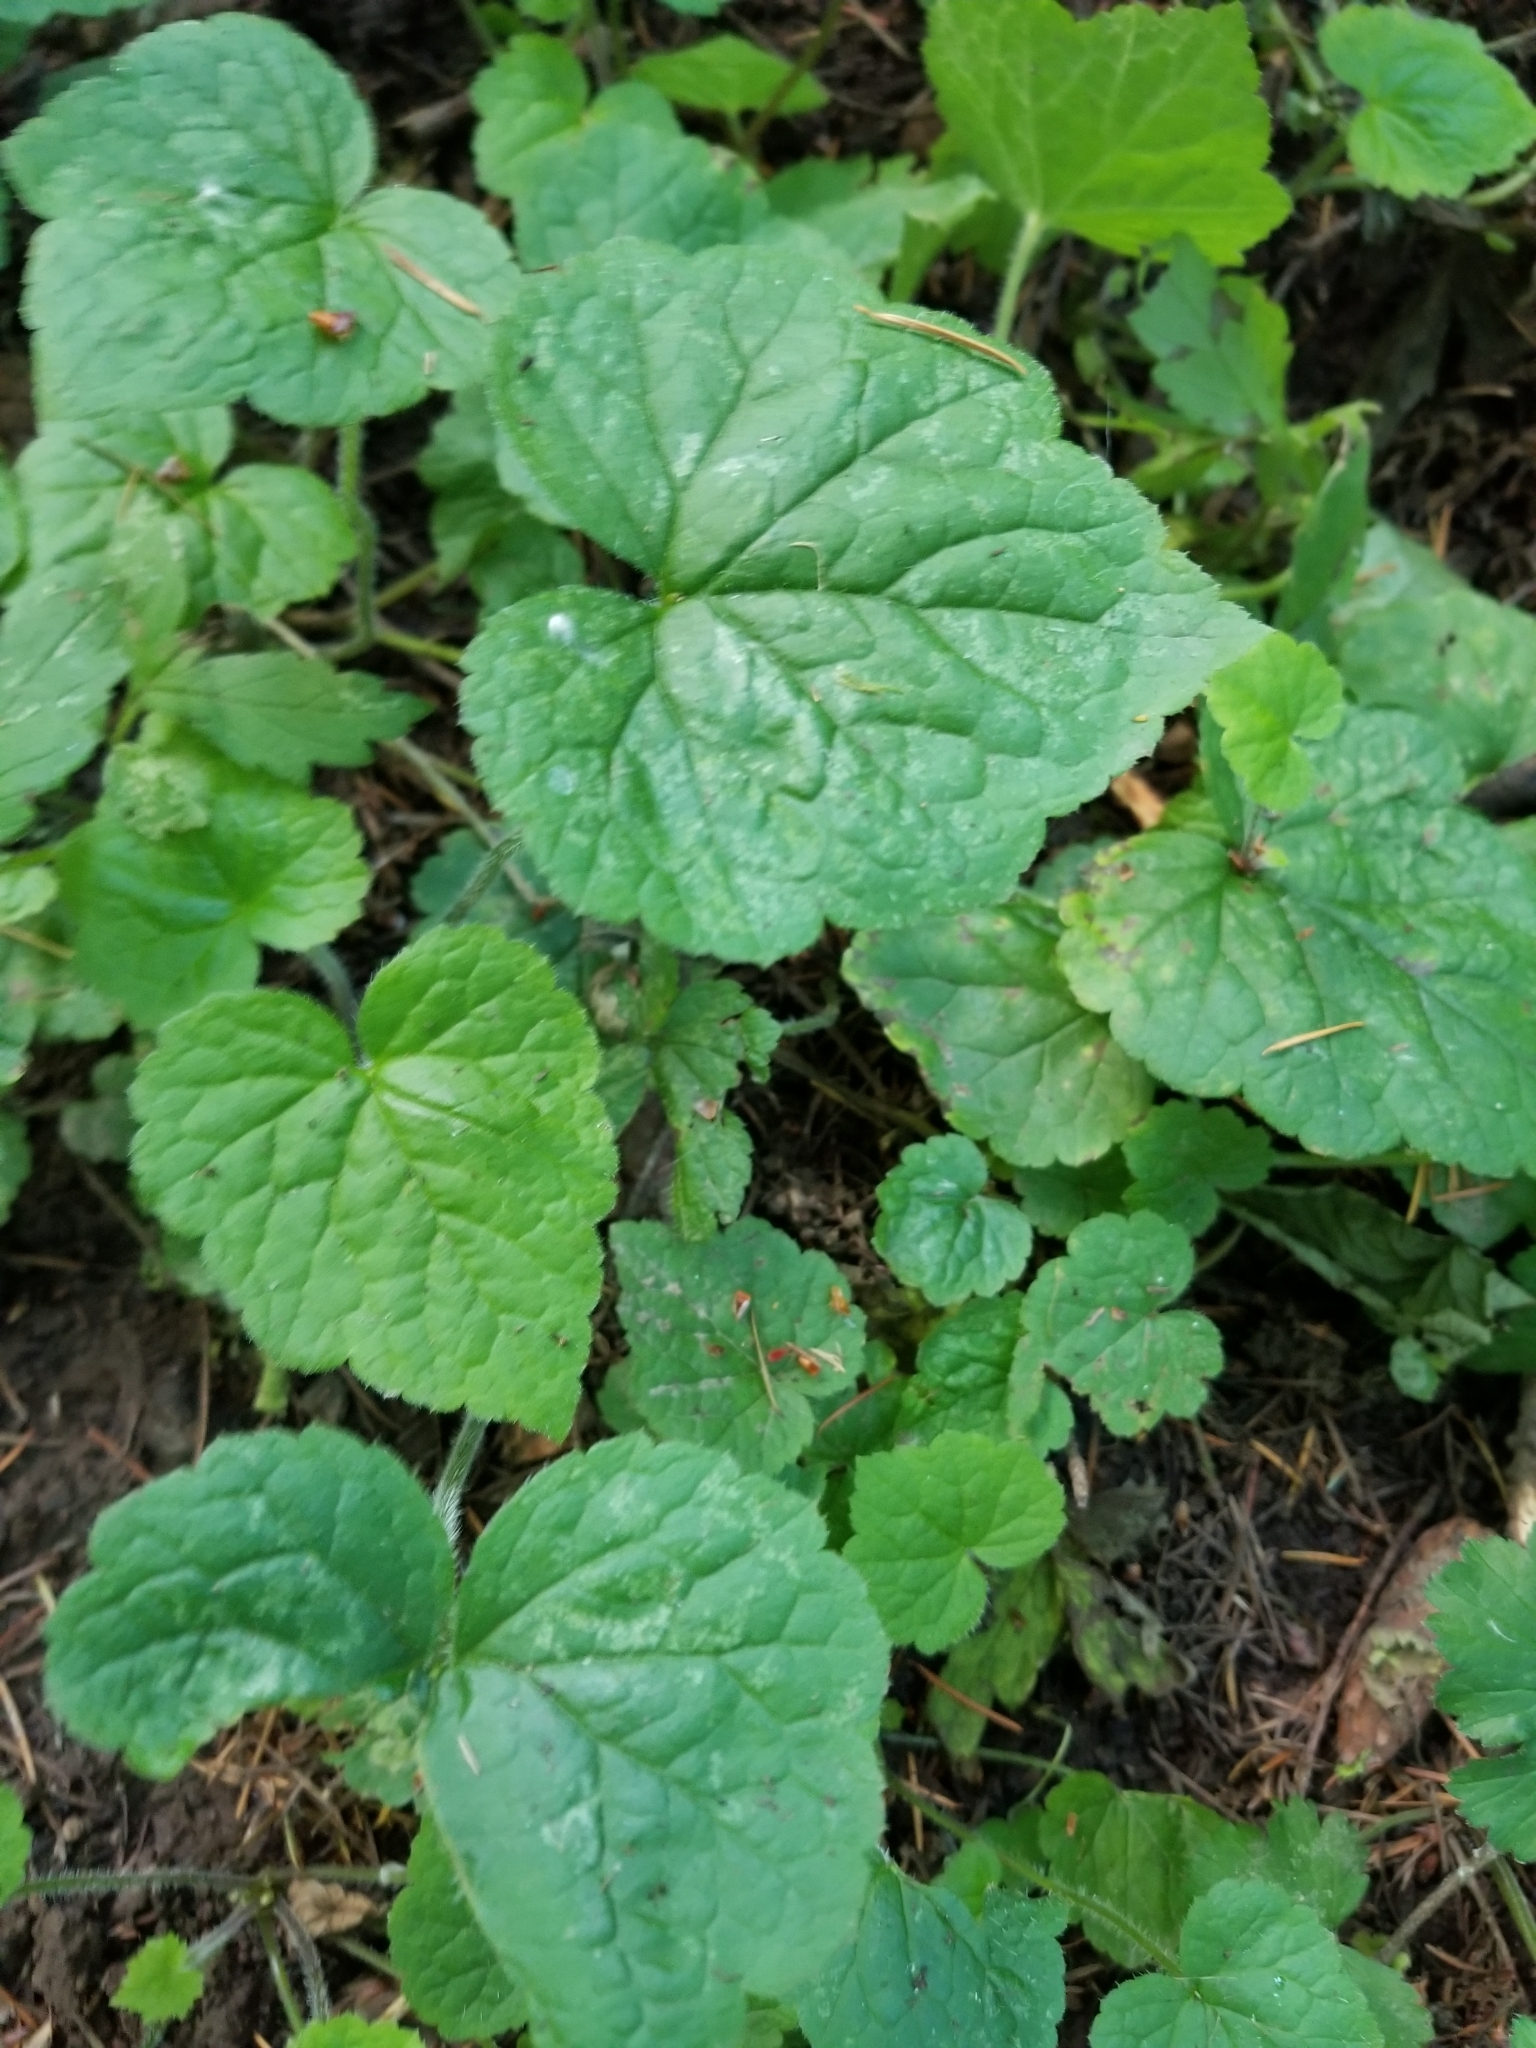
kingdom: Plantae
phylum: Tracheophyta
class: Magnoliopsida
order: Saxifragales
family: Saxifragaceae
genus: Tolmiea
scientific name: Tolmiea menziesii
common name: Pick-a-back-plant
